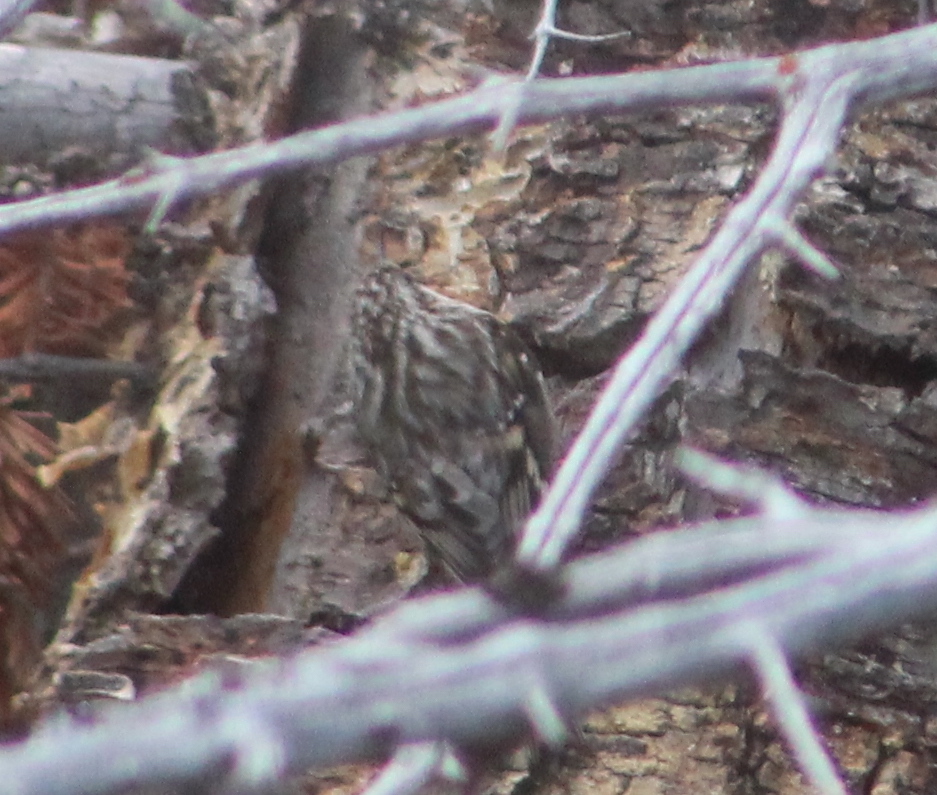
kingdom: Animalia
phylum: Chordata
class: Aves
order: Passeriformes
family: Certhiidae
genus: Certhia
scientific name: Certhia americana
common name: Brown creeper
